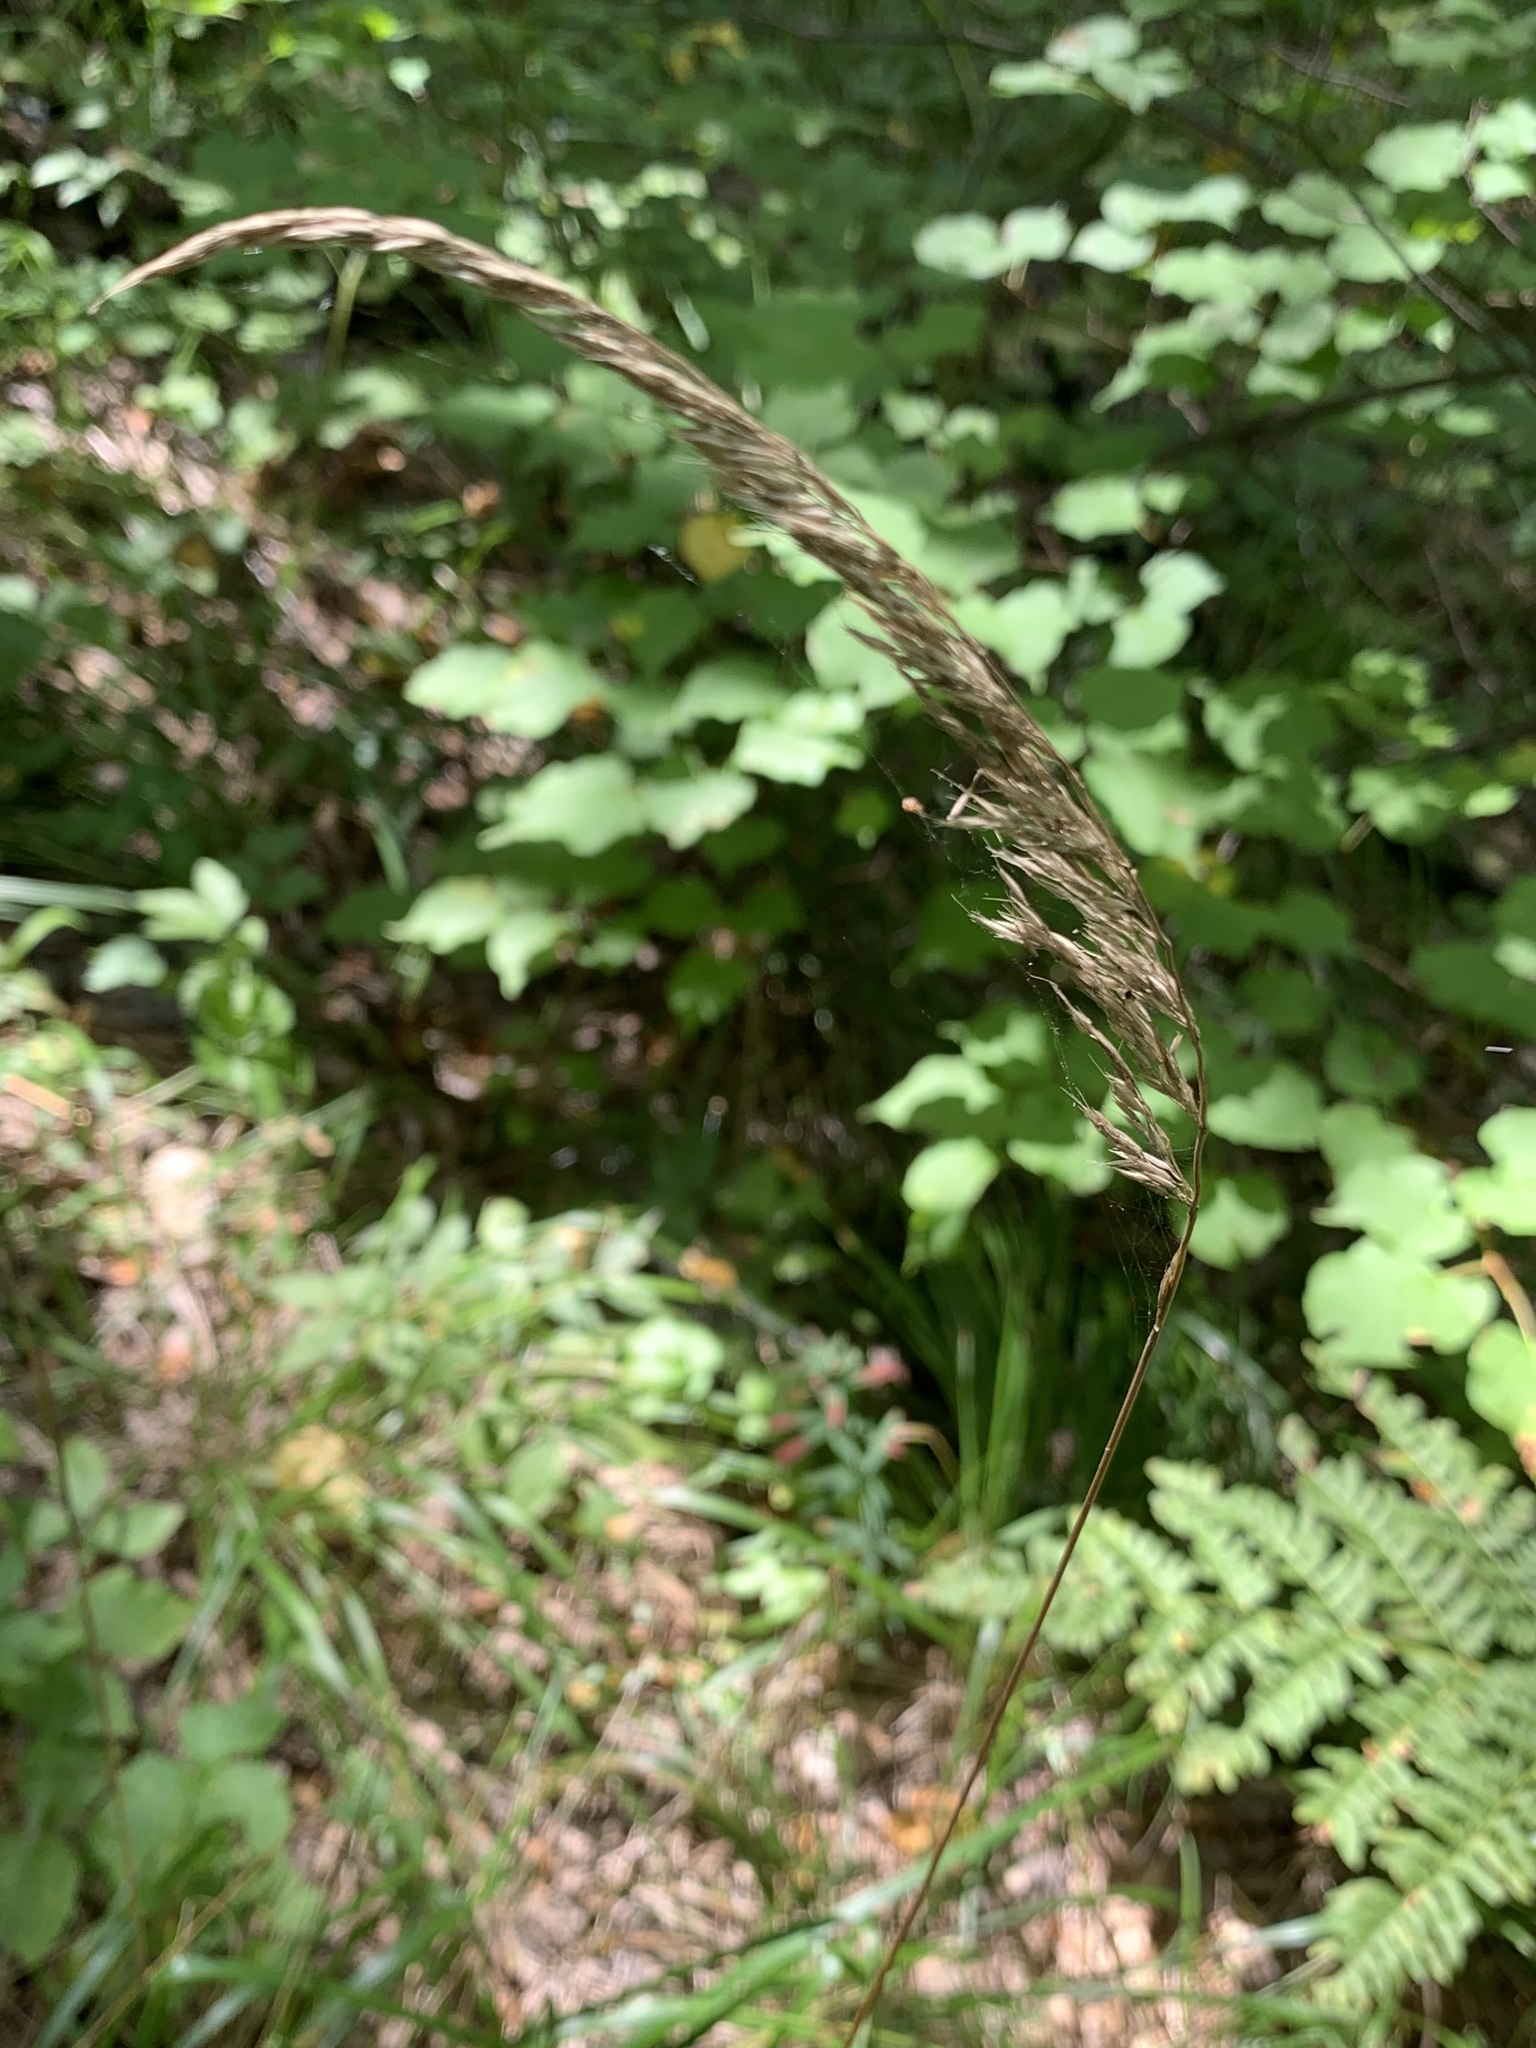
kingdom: Plantae
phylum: Tracheophyta
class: Liliopsida
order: Poales
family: Poaceae
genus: Calamagrostis
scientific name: Calamagrostis arundinacea
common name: Metskastik
